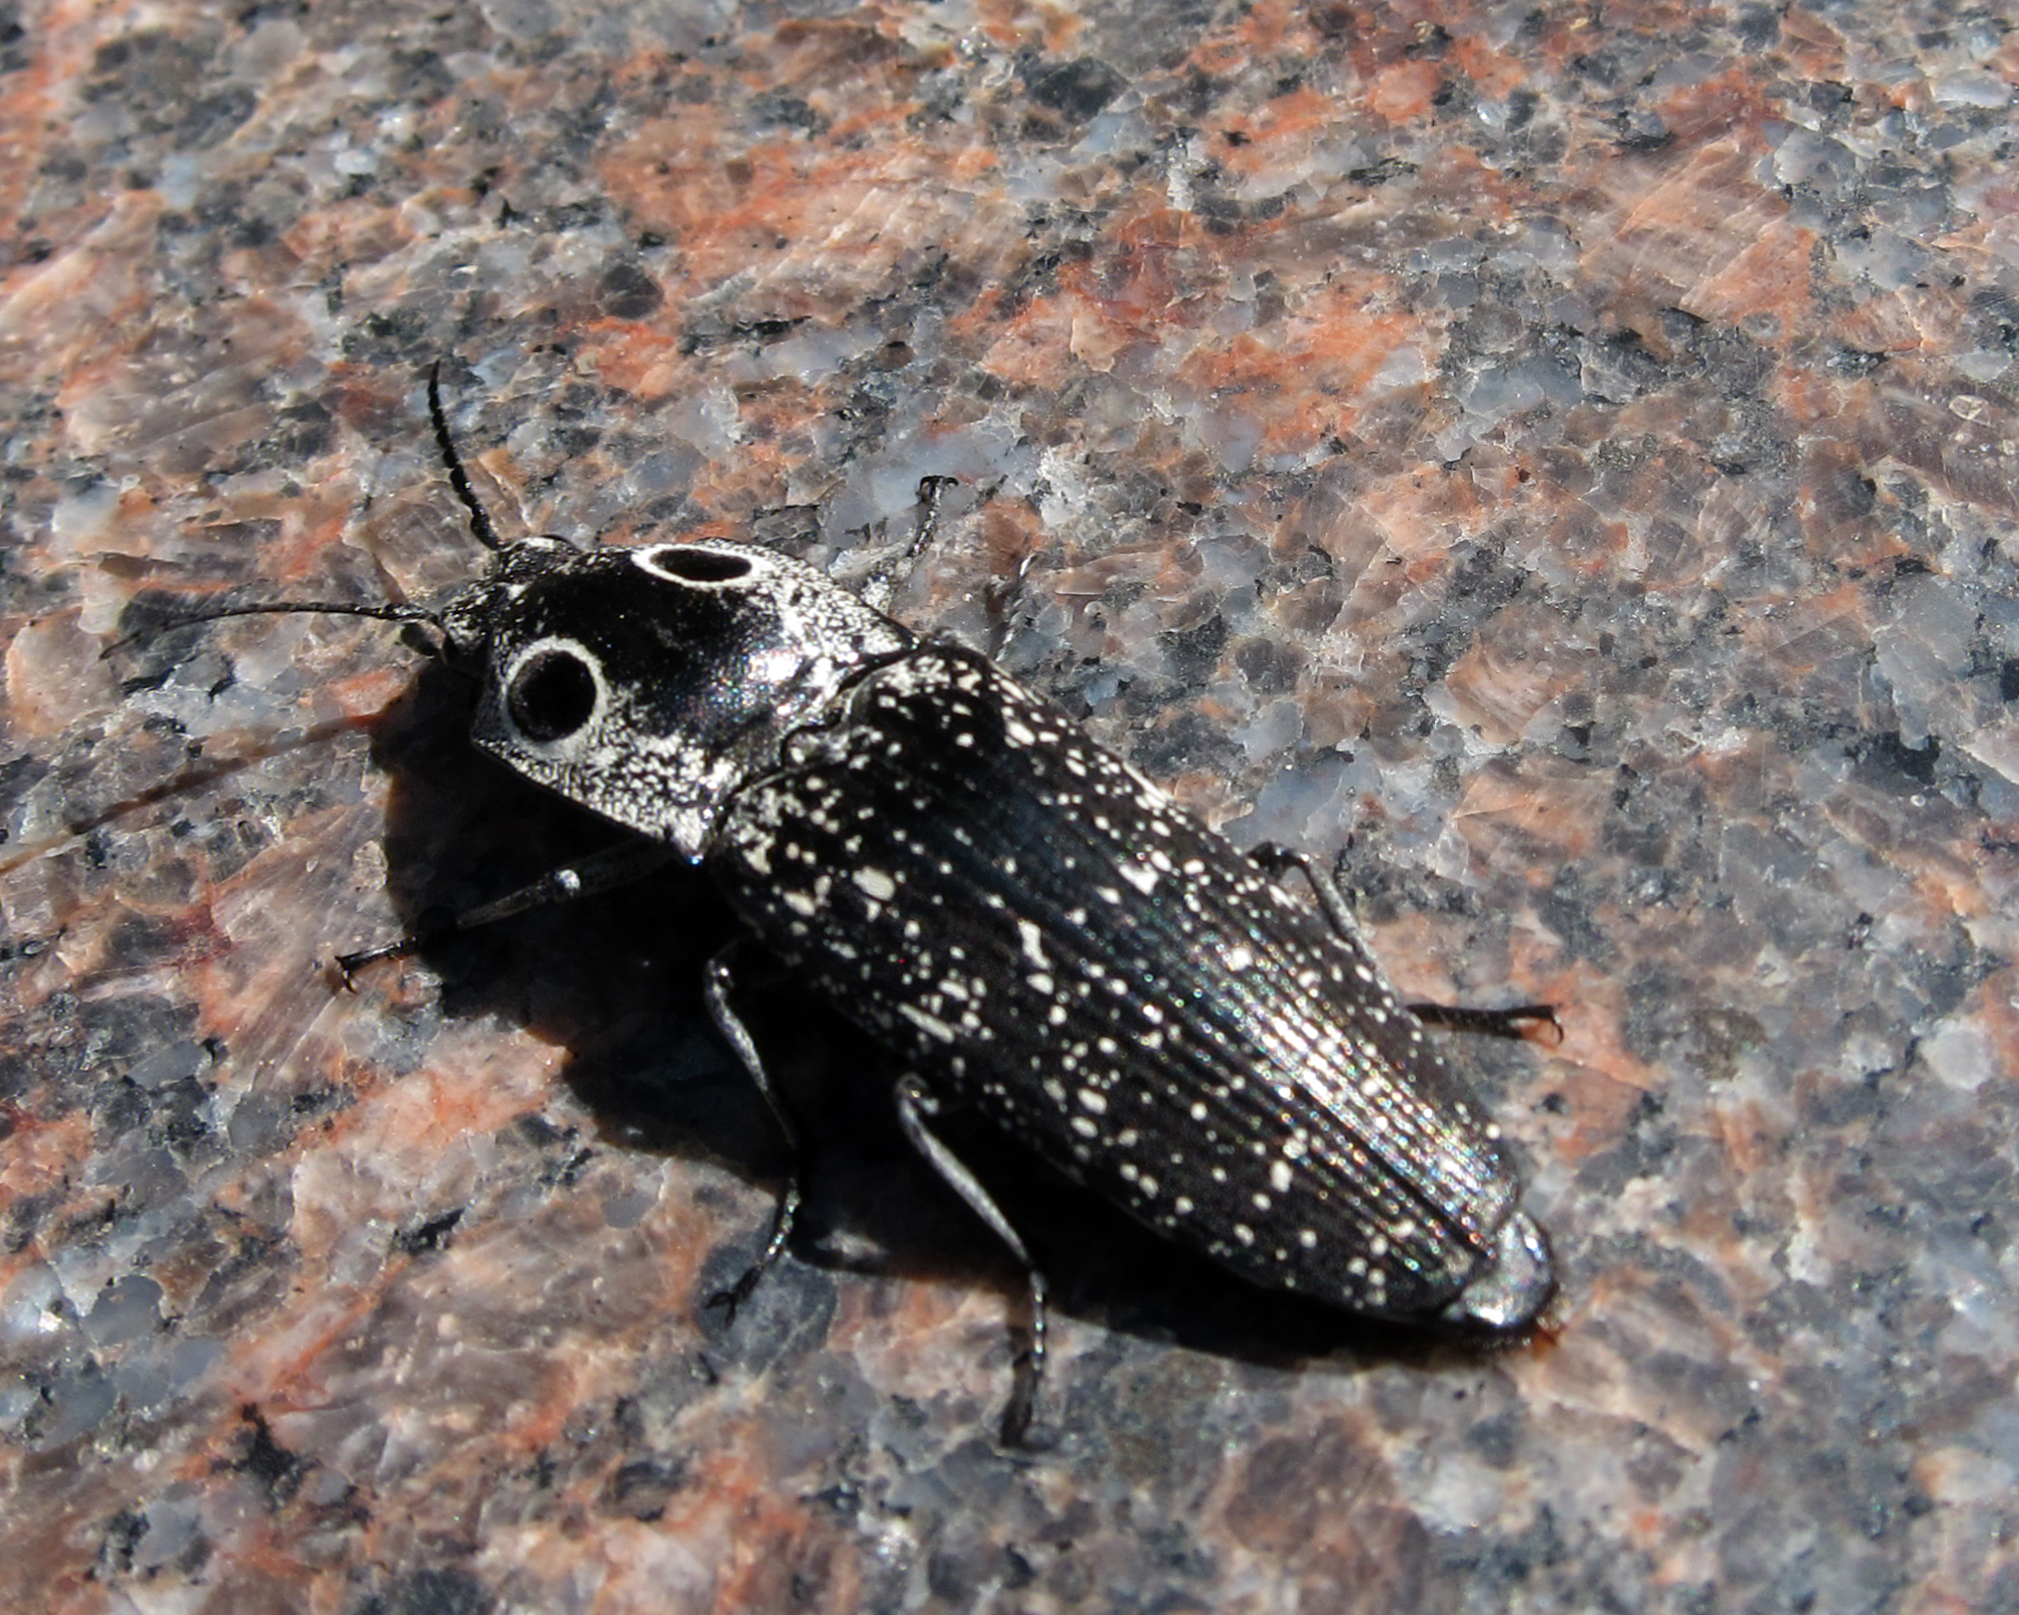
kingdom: Animalia
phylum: Arthropoda
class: Insecta
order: Coleoptera
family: Elateridae
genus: Alaus
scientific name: Alaus oculatus
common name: Eastern eyed click beetle
